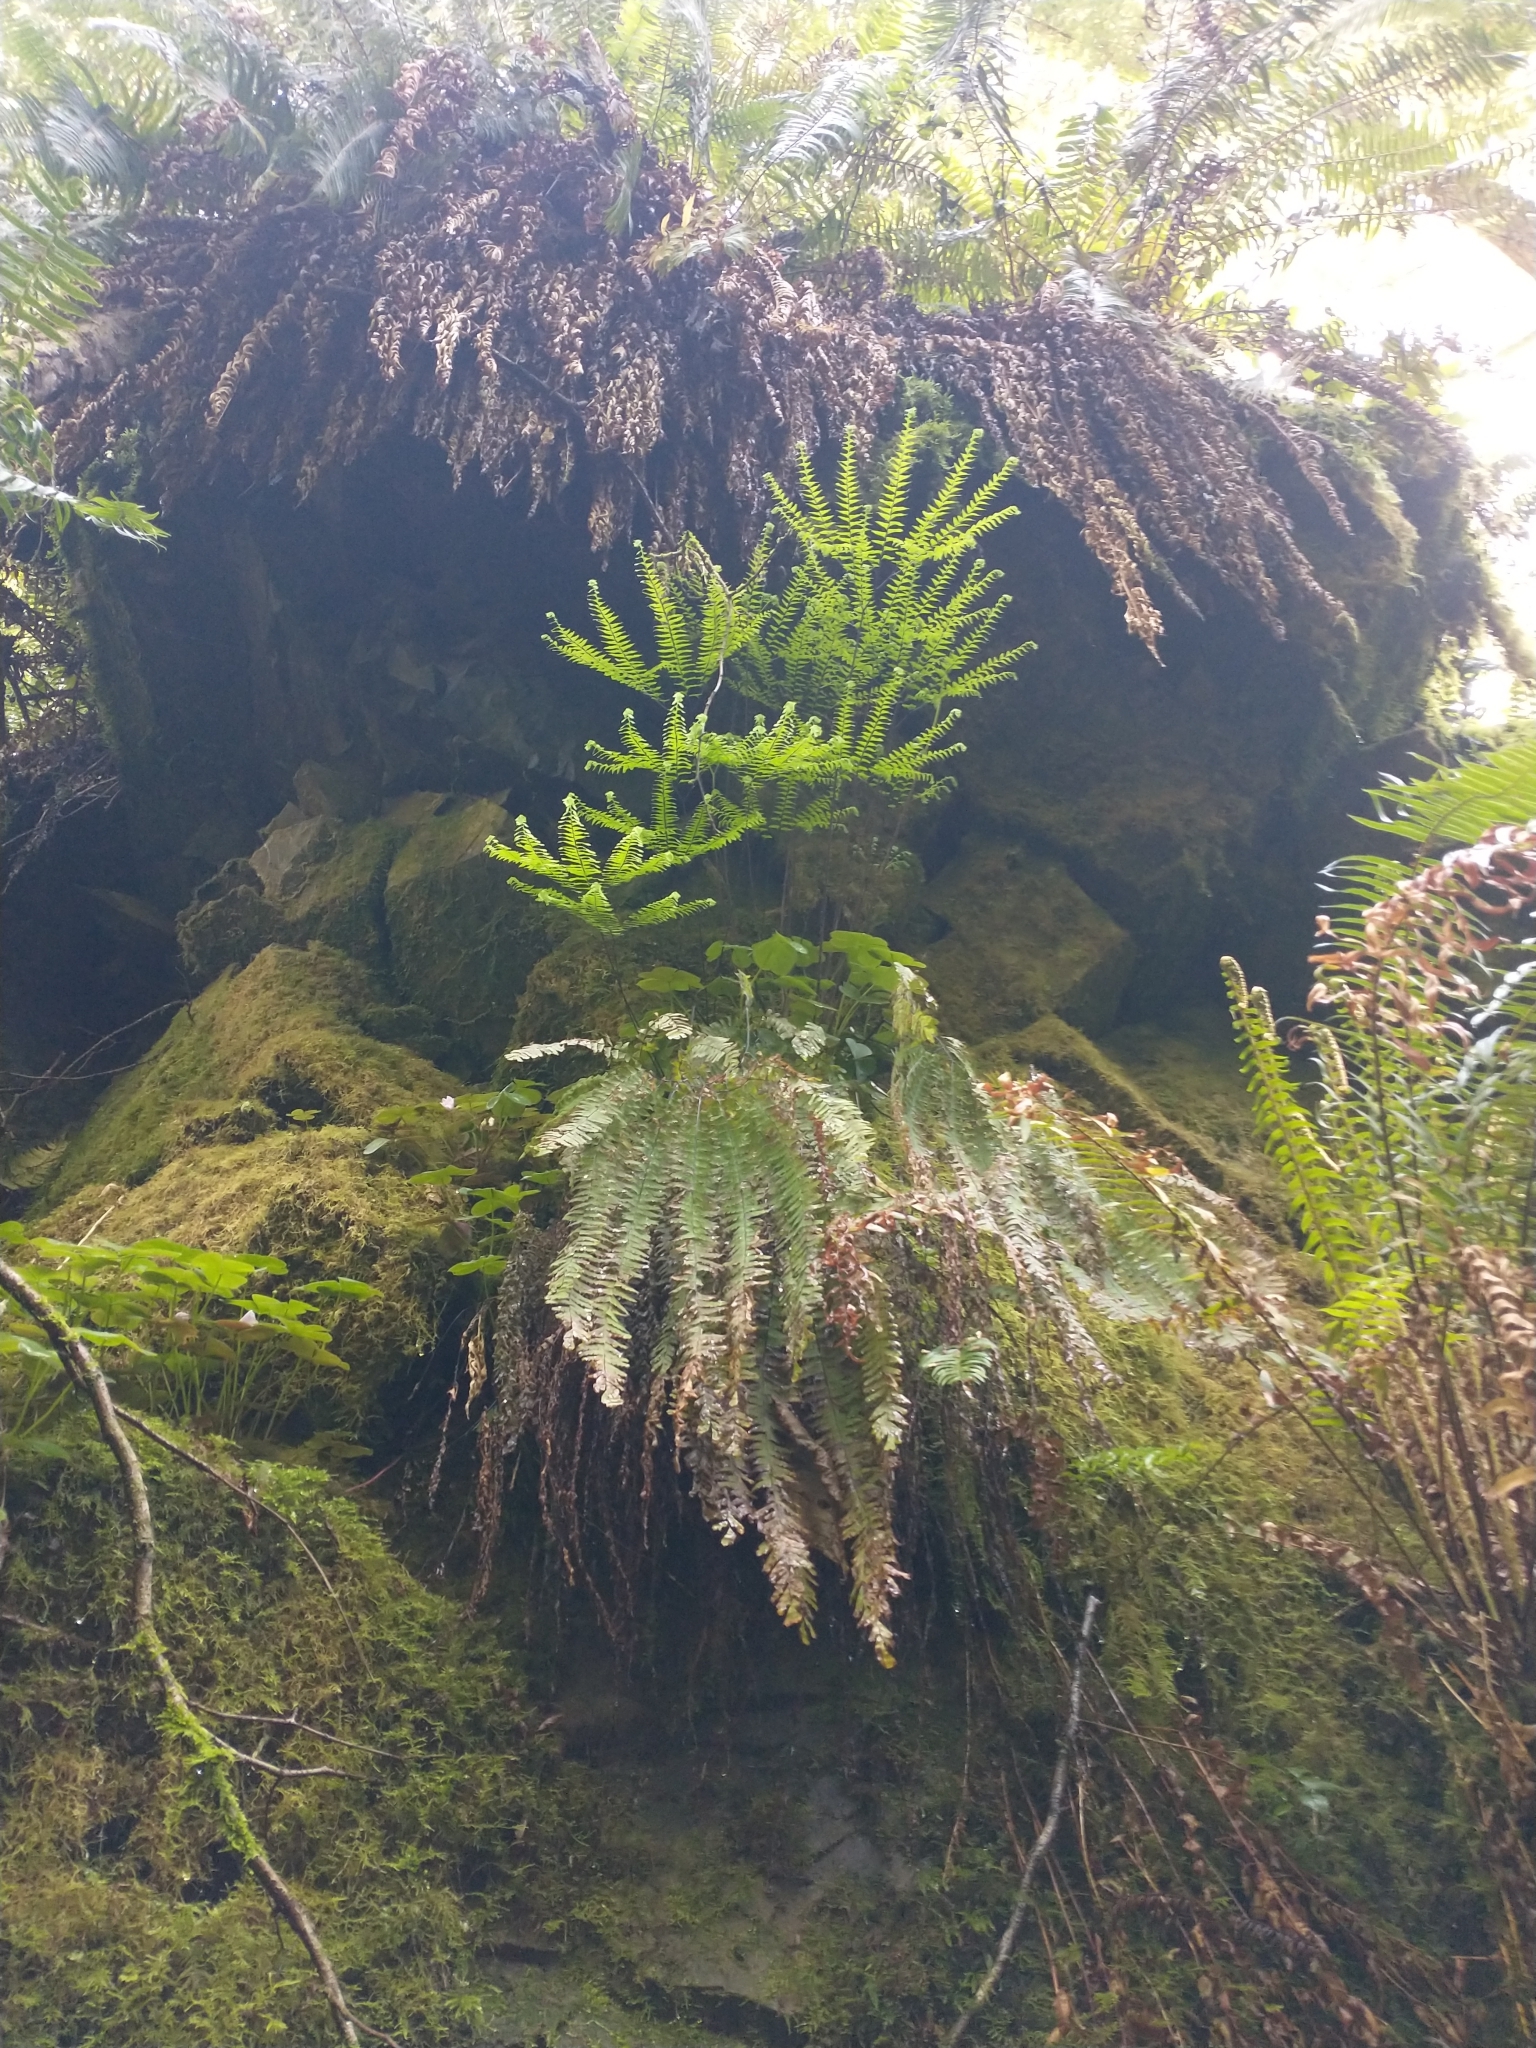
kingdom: Plantae
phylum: Tracheophyta
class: Polypodiopsida
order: Polypodiales
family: Pteridaceae
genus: Adiantum
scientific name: Adiantum aleuticum
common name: Aleutian maidenhair fern
